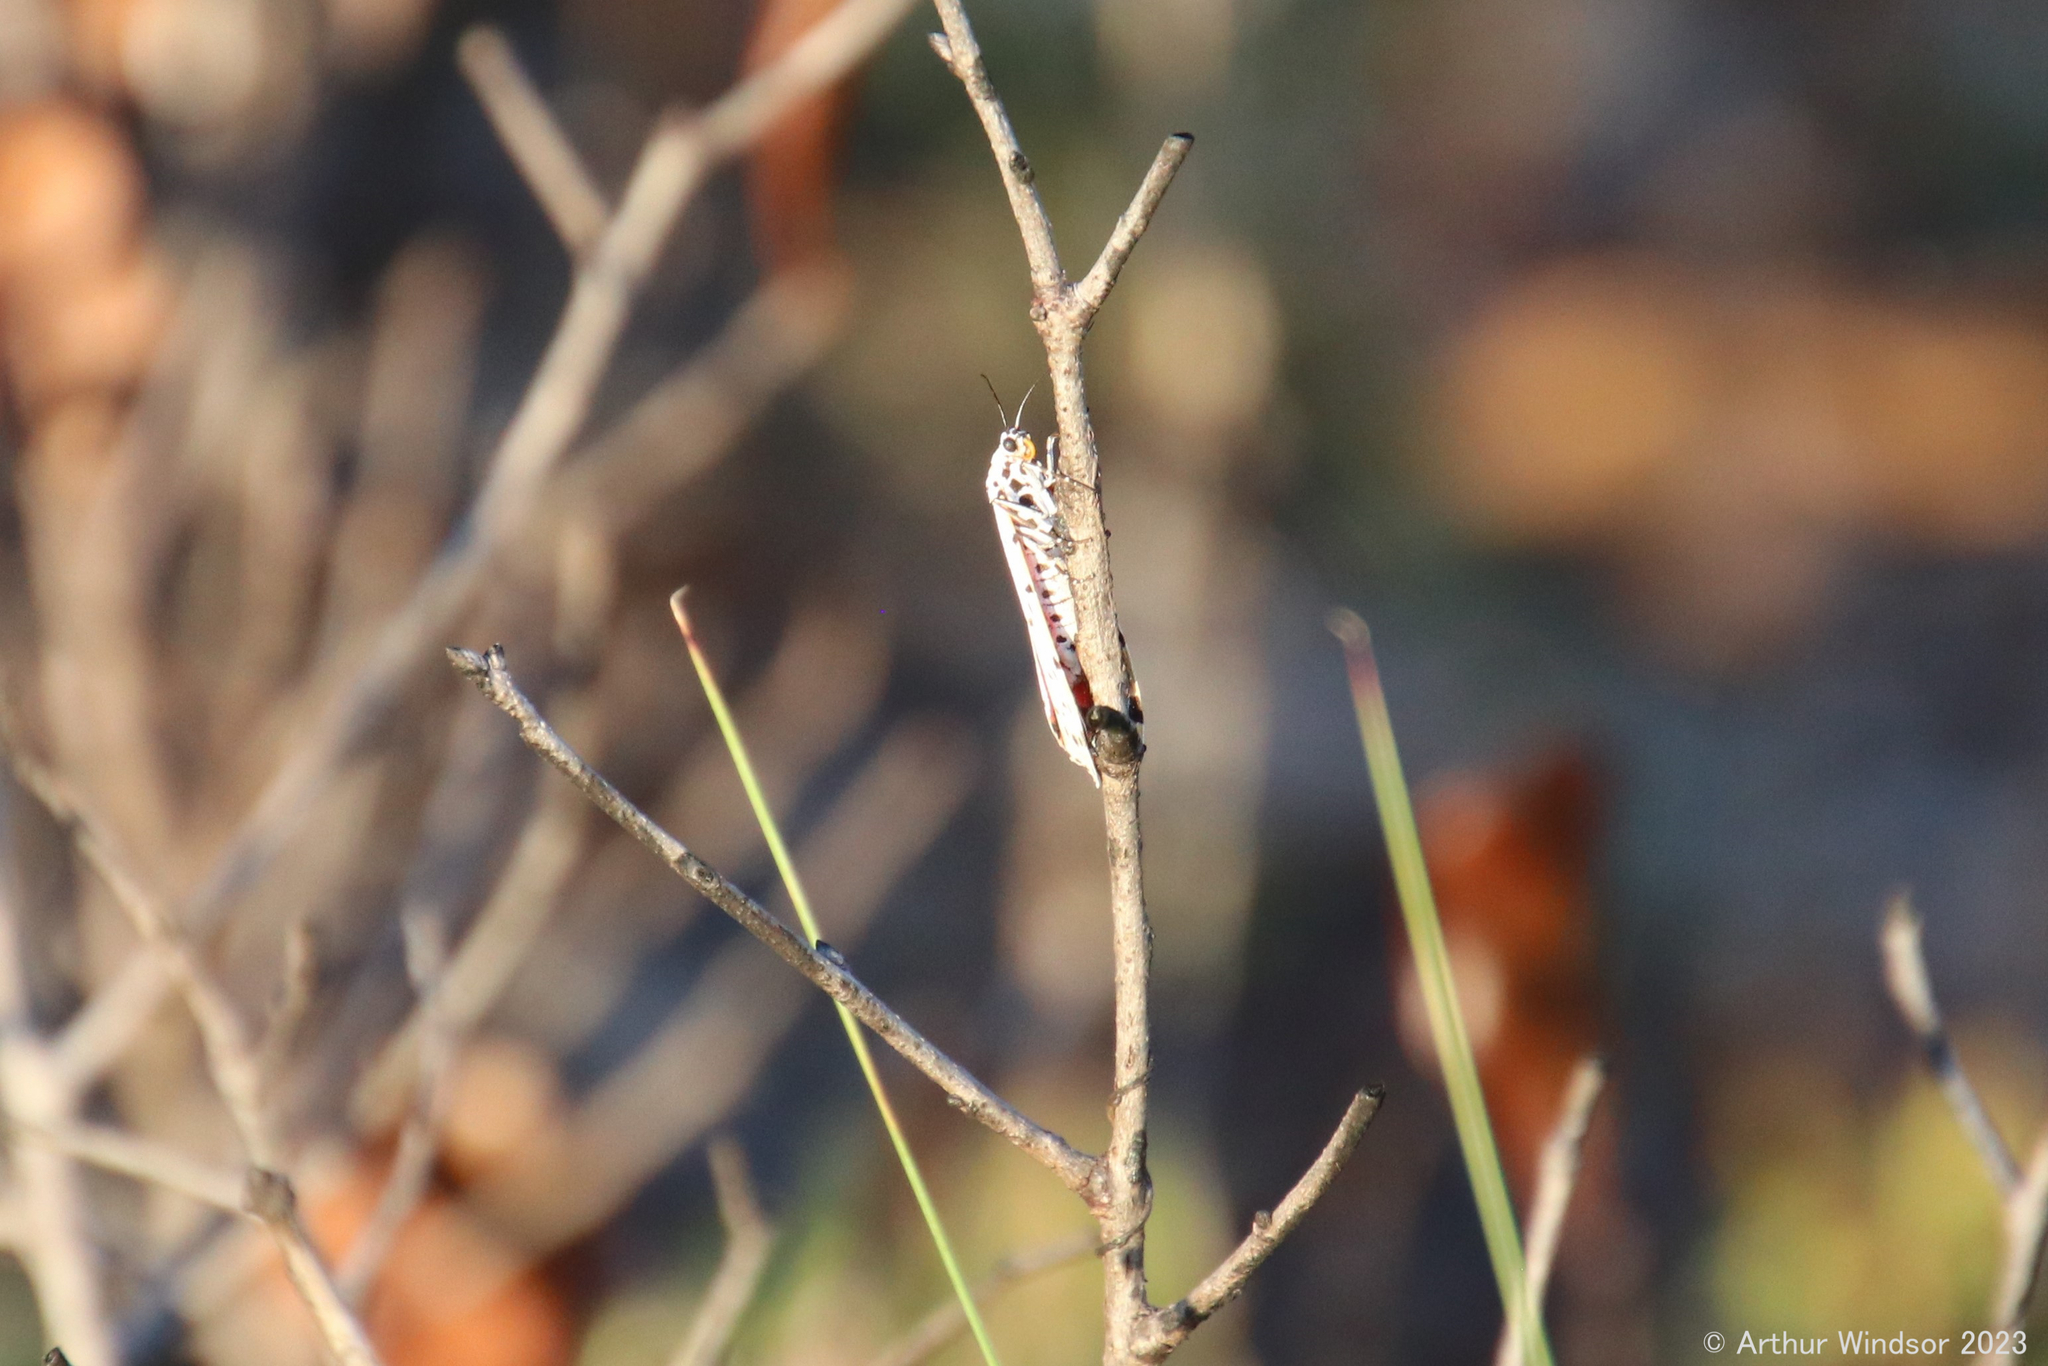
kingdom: Animalia
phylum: Arthropoda
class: Insecta
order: Lepidoptera
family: Erebidae
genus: Utetheisa
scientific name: Utetheisa ornatrix
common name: Beautiful utetheisa
